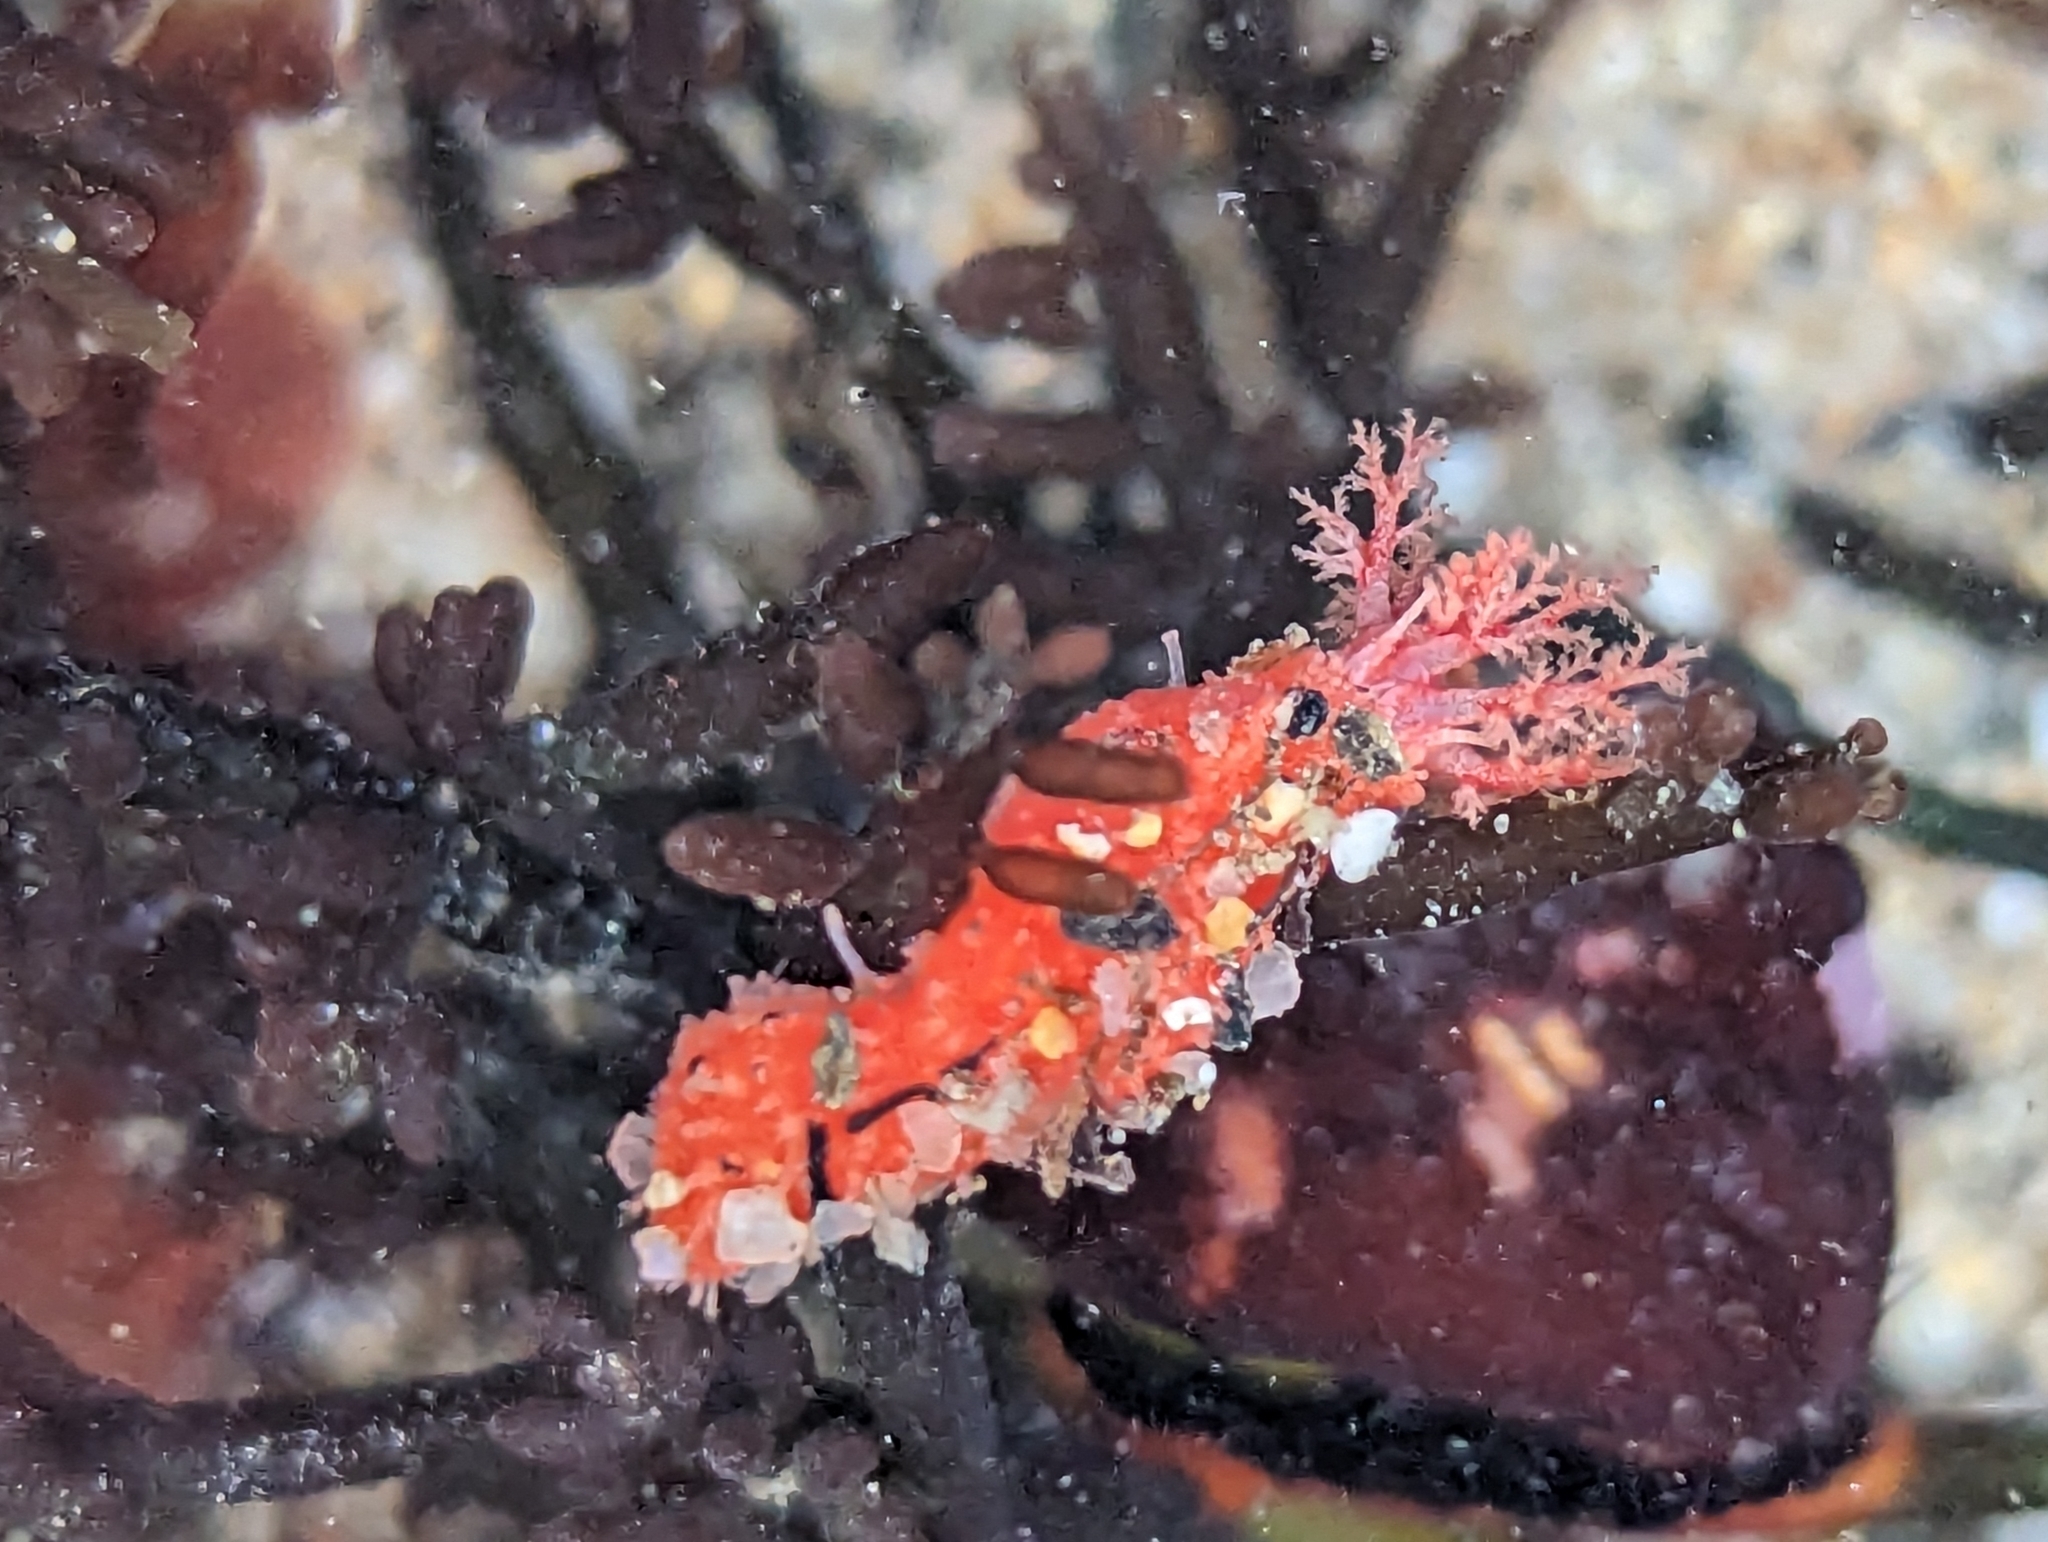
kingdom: Animalia
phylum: Echinodermata
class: Holothuroidea
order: Dendrochirotida
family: Psolidae
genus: Lissothuria
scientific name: Lissothuria nutriens
